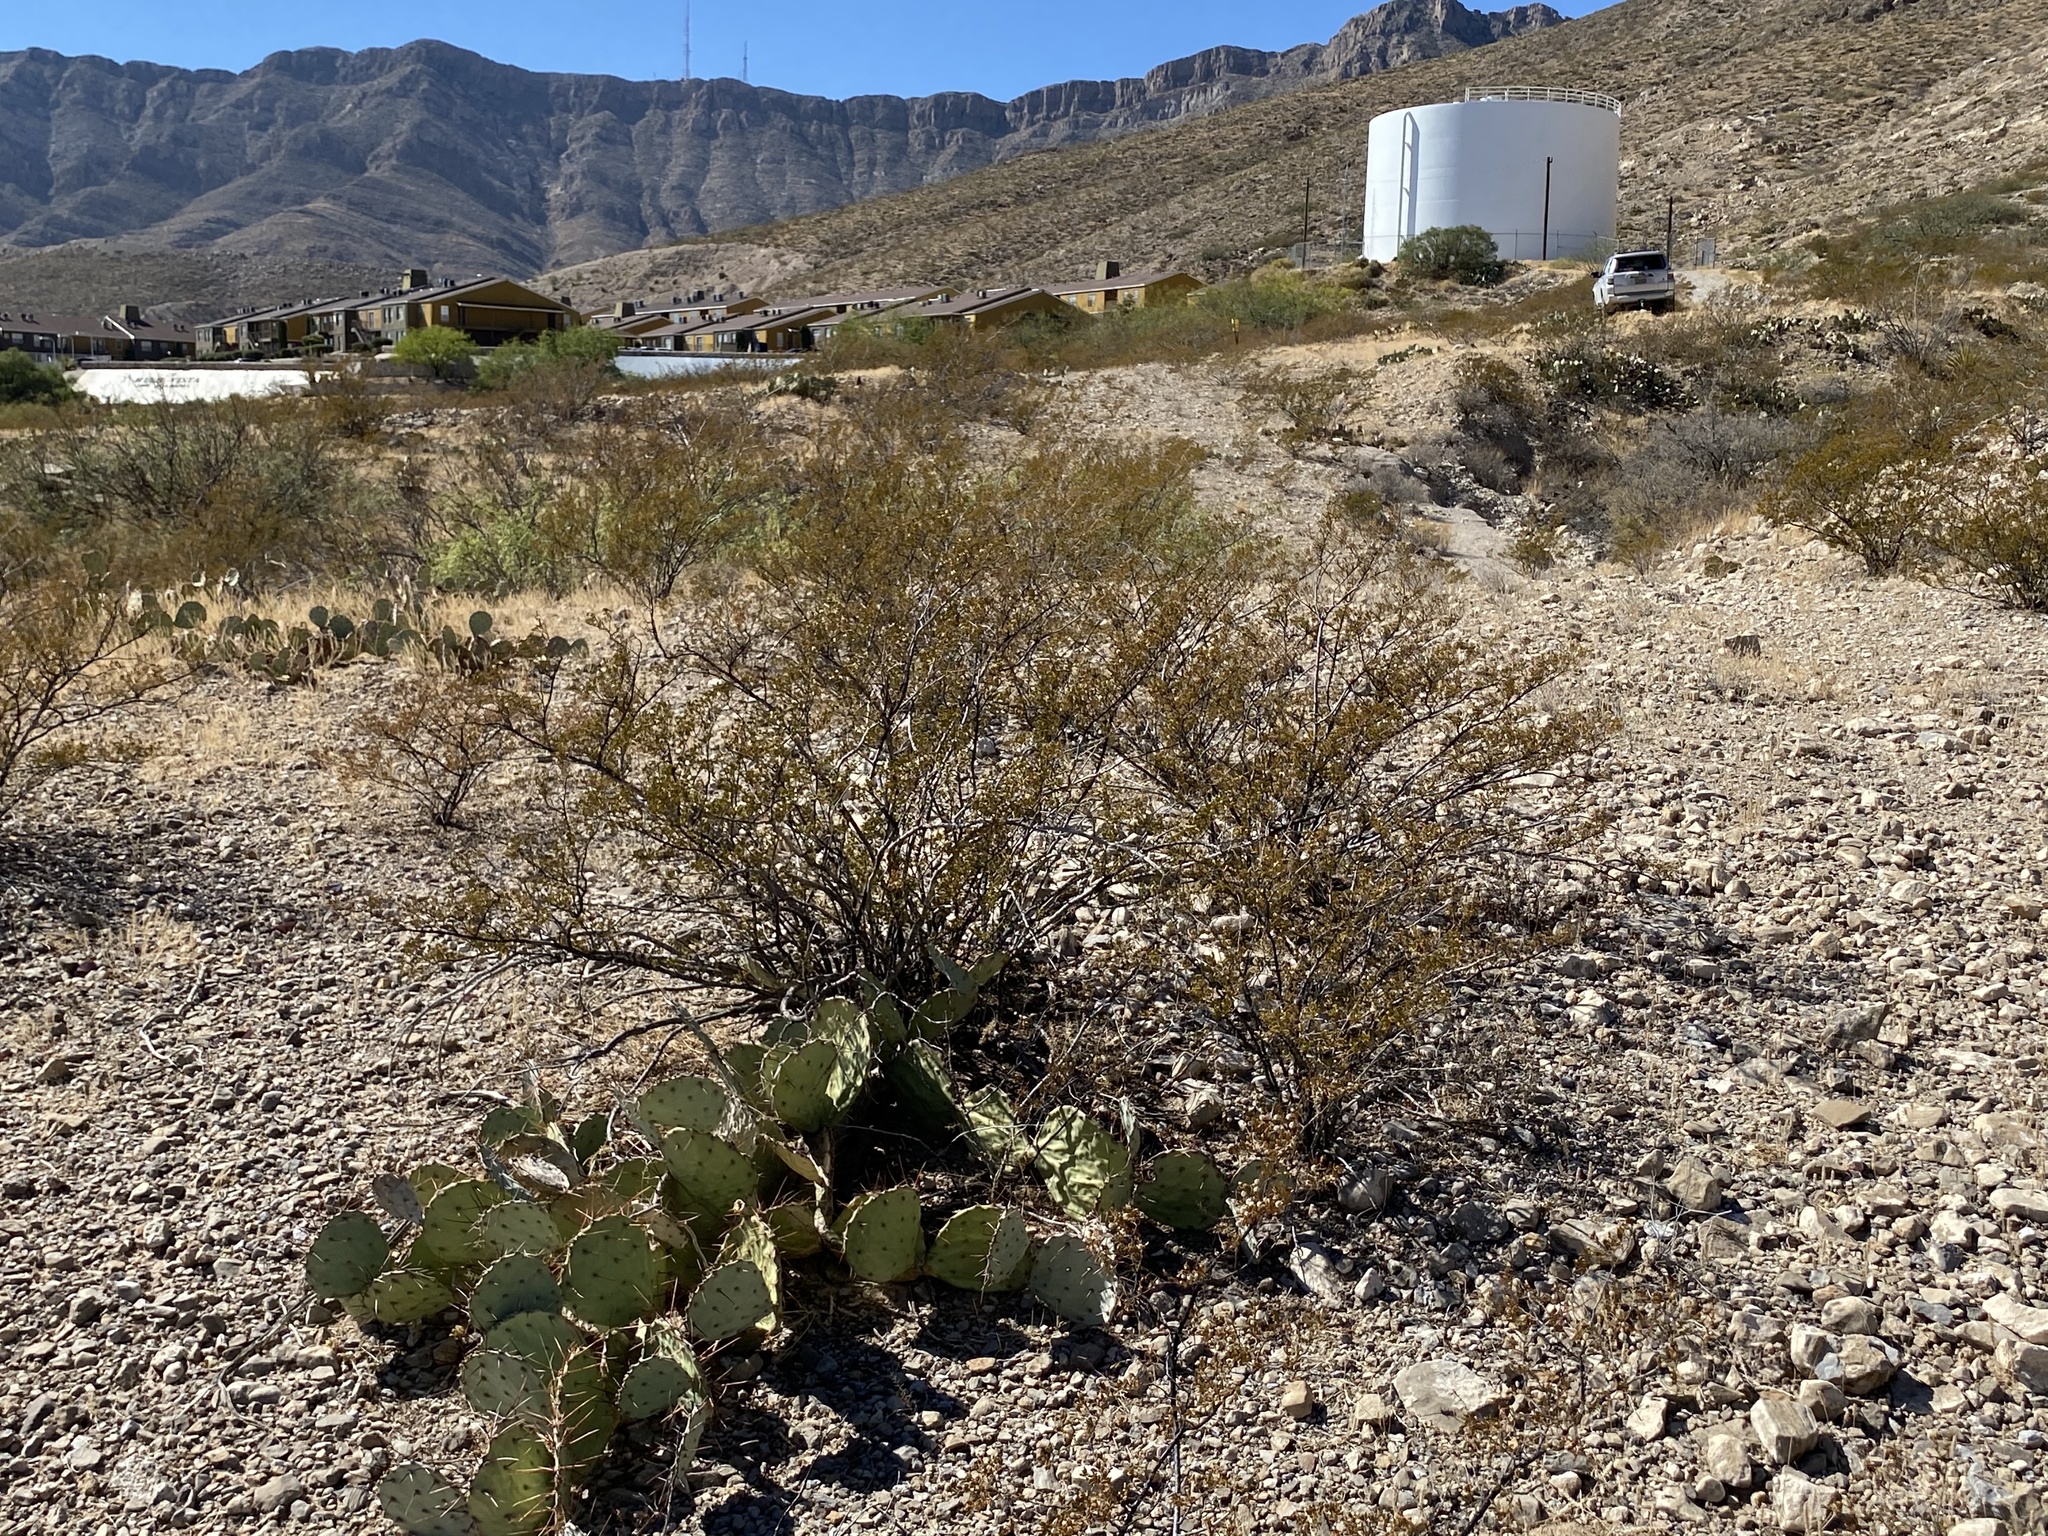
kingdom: Plantae
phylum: Tracheophyta
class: Magnoliopsida
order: Zygophyllales
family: Zygophyllaceae
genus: Larrea
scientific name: Larrea tridentata
